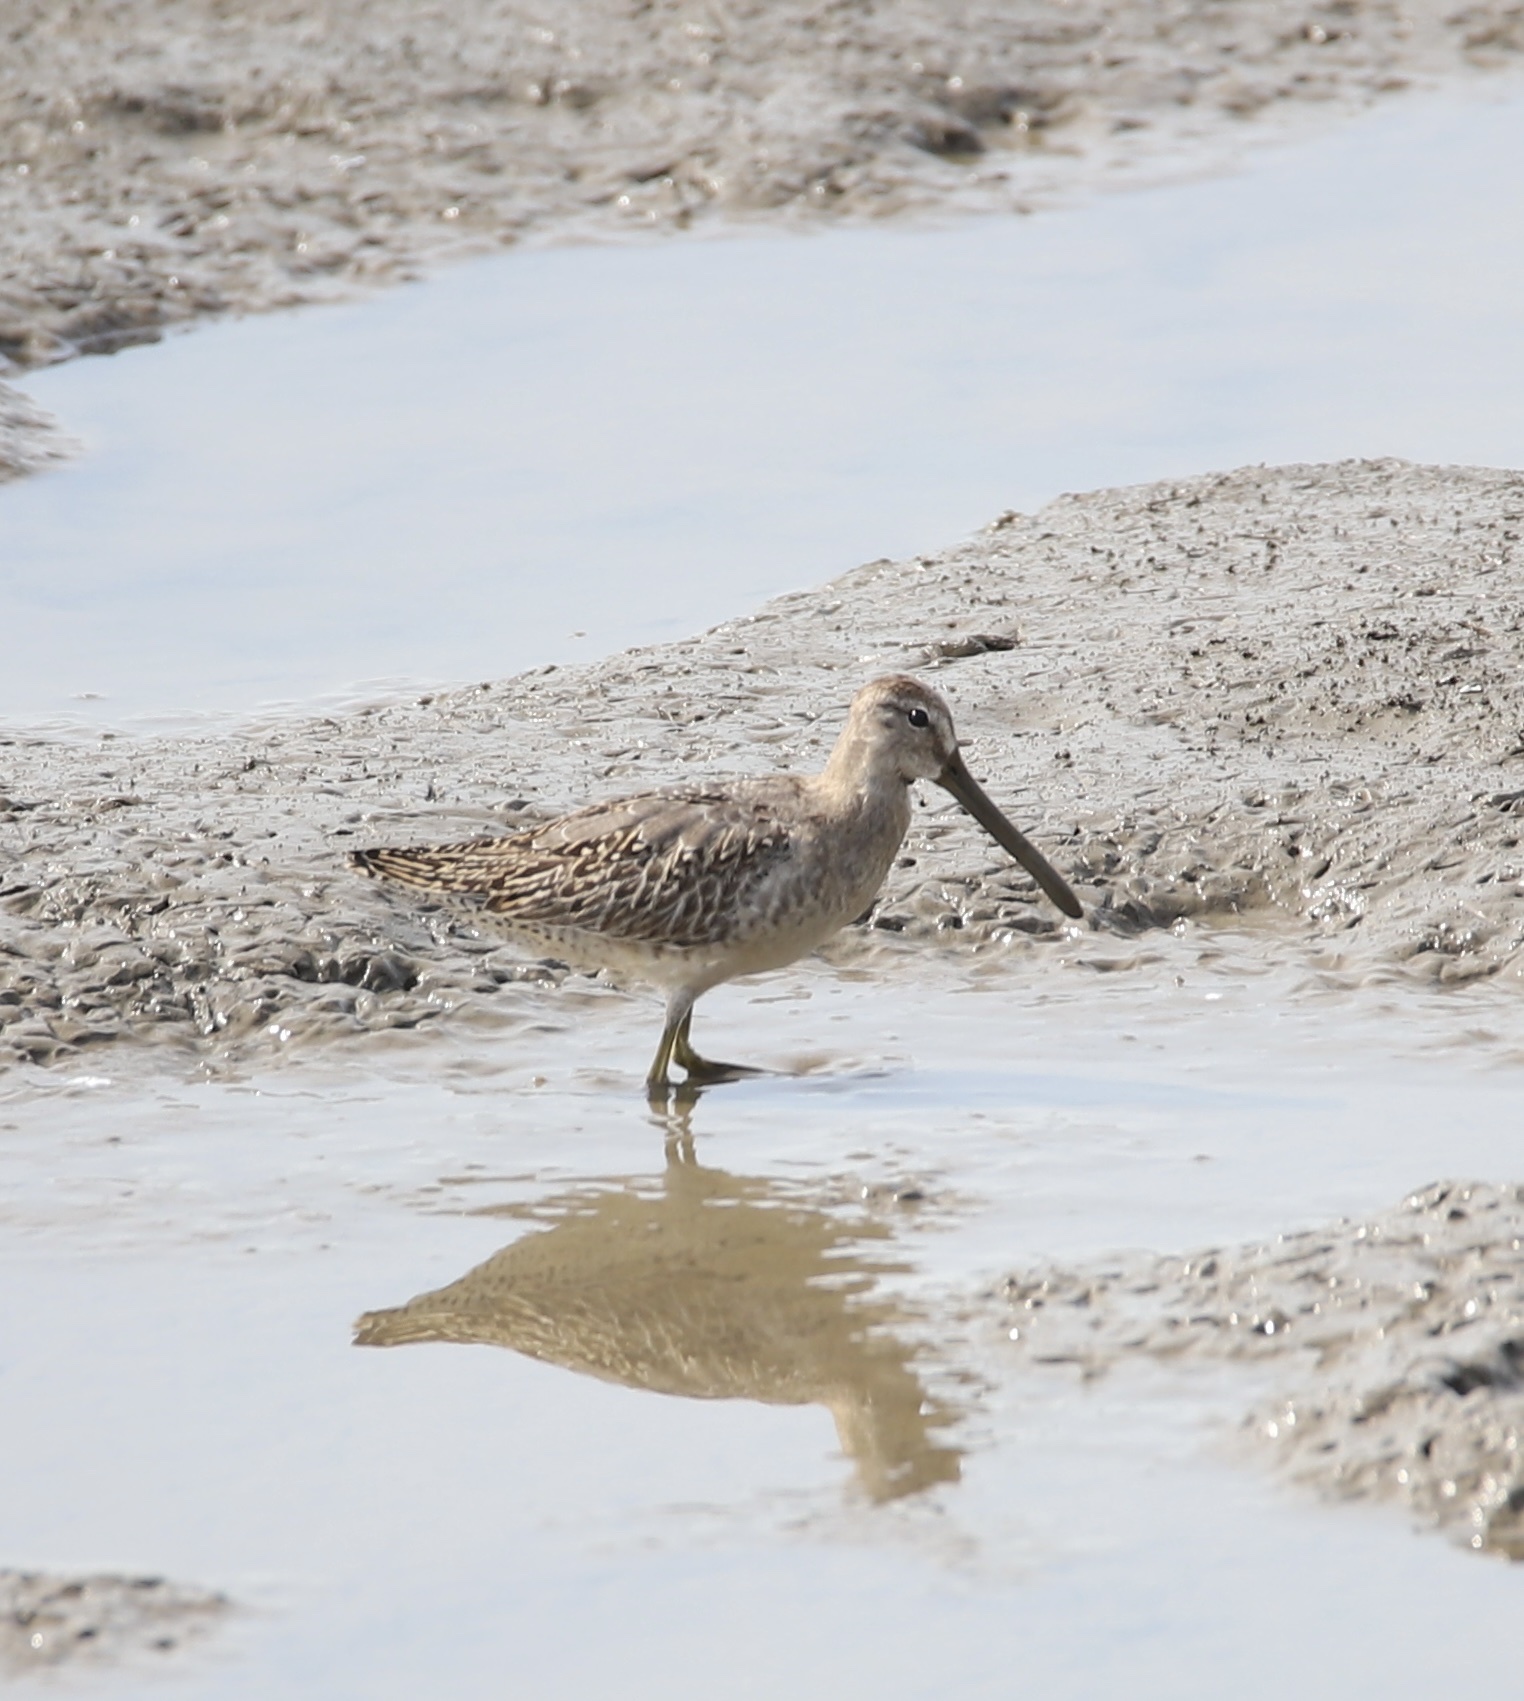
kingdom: Animalia
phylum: Chordata
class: Aves
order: Charadriiformes
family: Scolopacidae
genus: Limnodromus
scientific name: Limnodromus griseus
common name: Short-billed dowitcher
